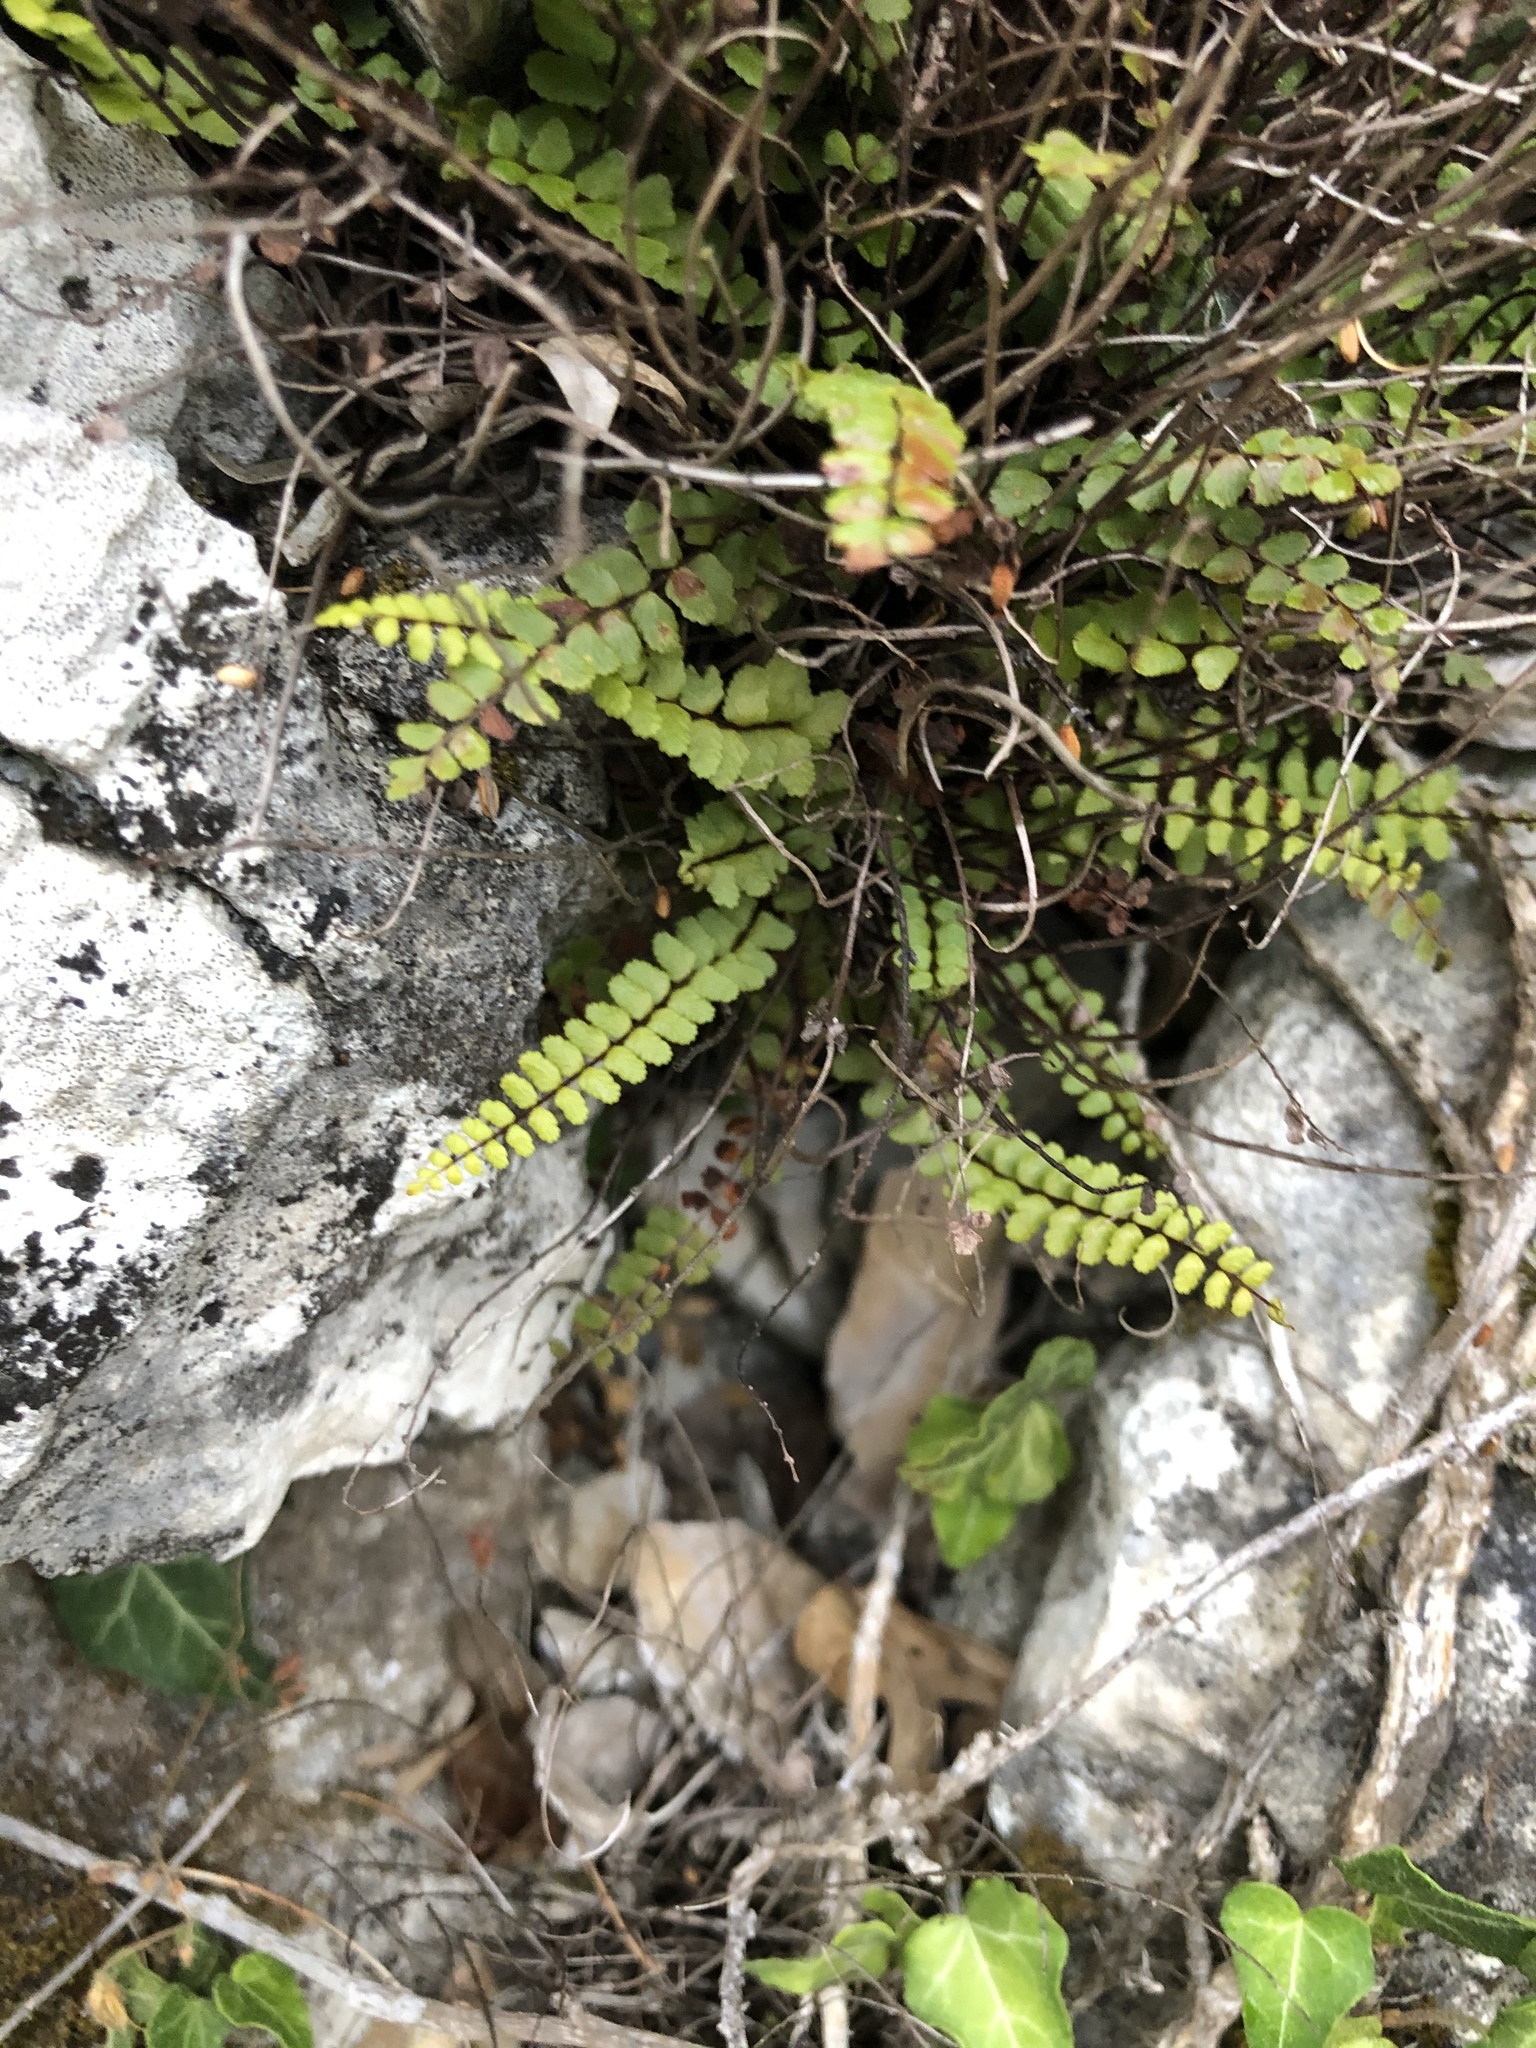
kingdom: Plantae
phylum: Tracheophyta
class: Polypodiopsida
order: Polypodiales
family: Aspleniaceae
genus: Asplenium
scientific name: Asplenium trichomanes
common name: Maidenhair spleenwort
